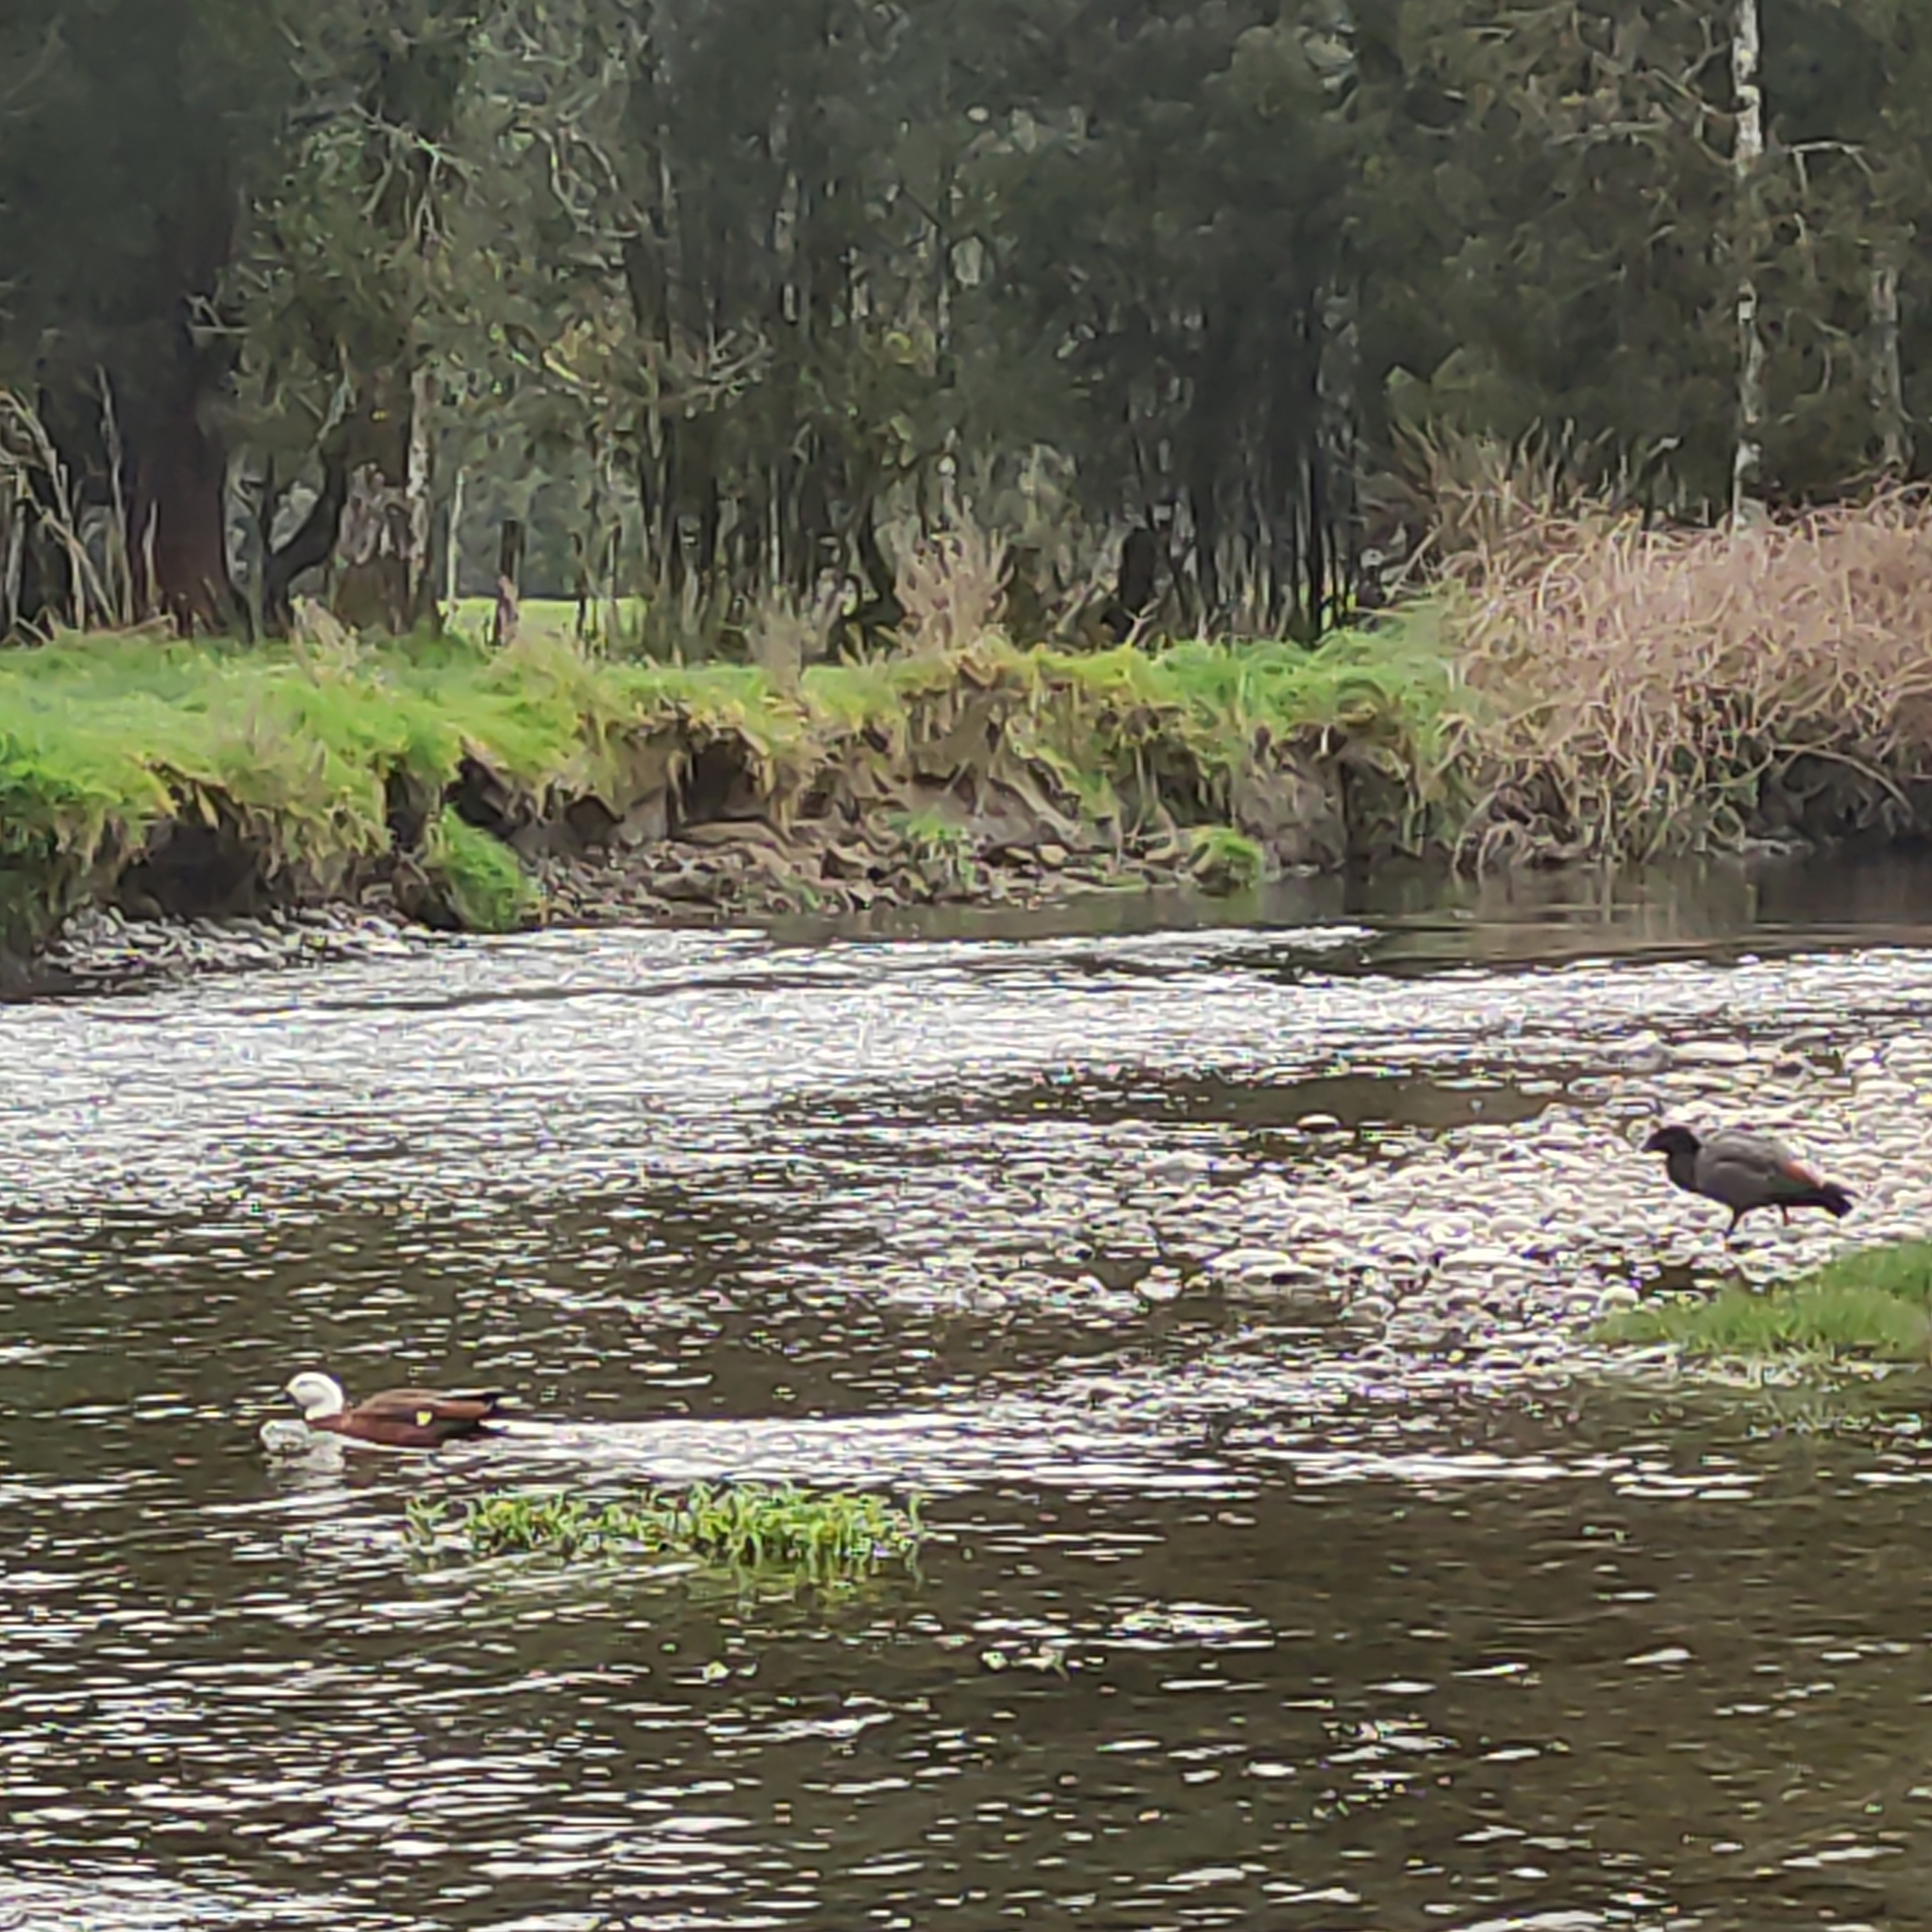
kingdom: Animalia
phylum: Chordata
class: Aves
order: Anseriformes
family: Anatidae
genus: Tadorna
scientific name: Tadorna variegata
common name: Paradise shelduck
